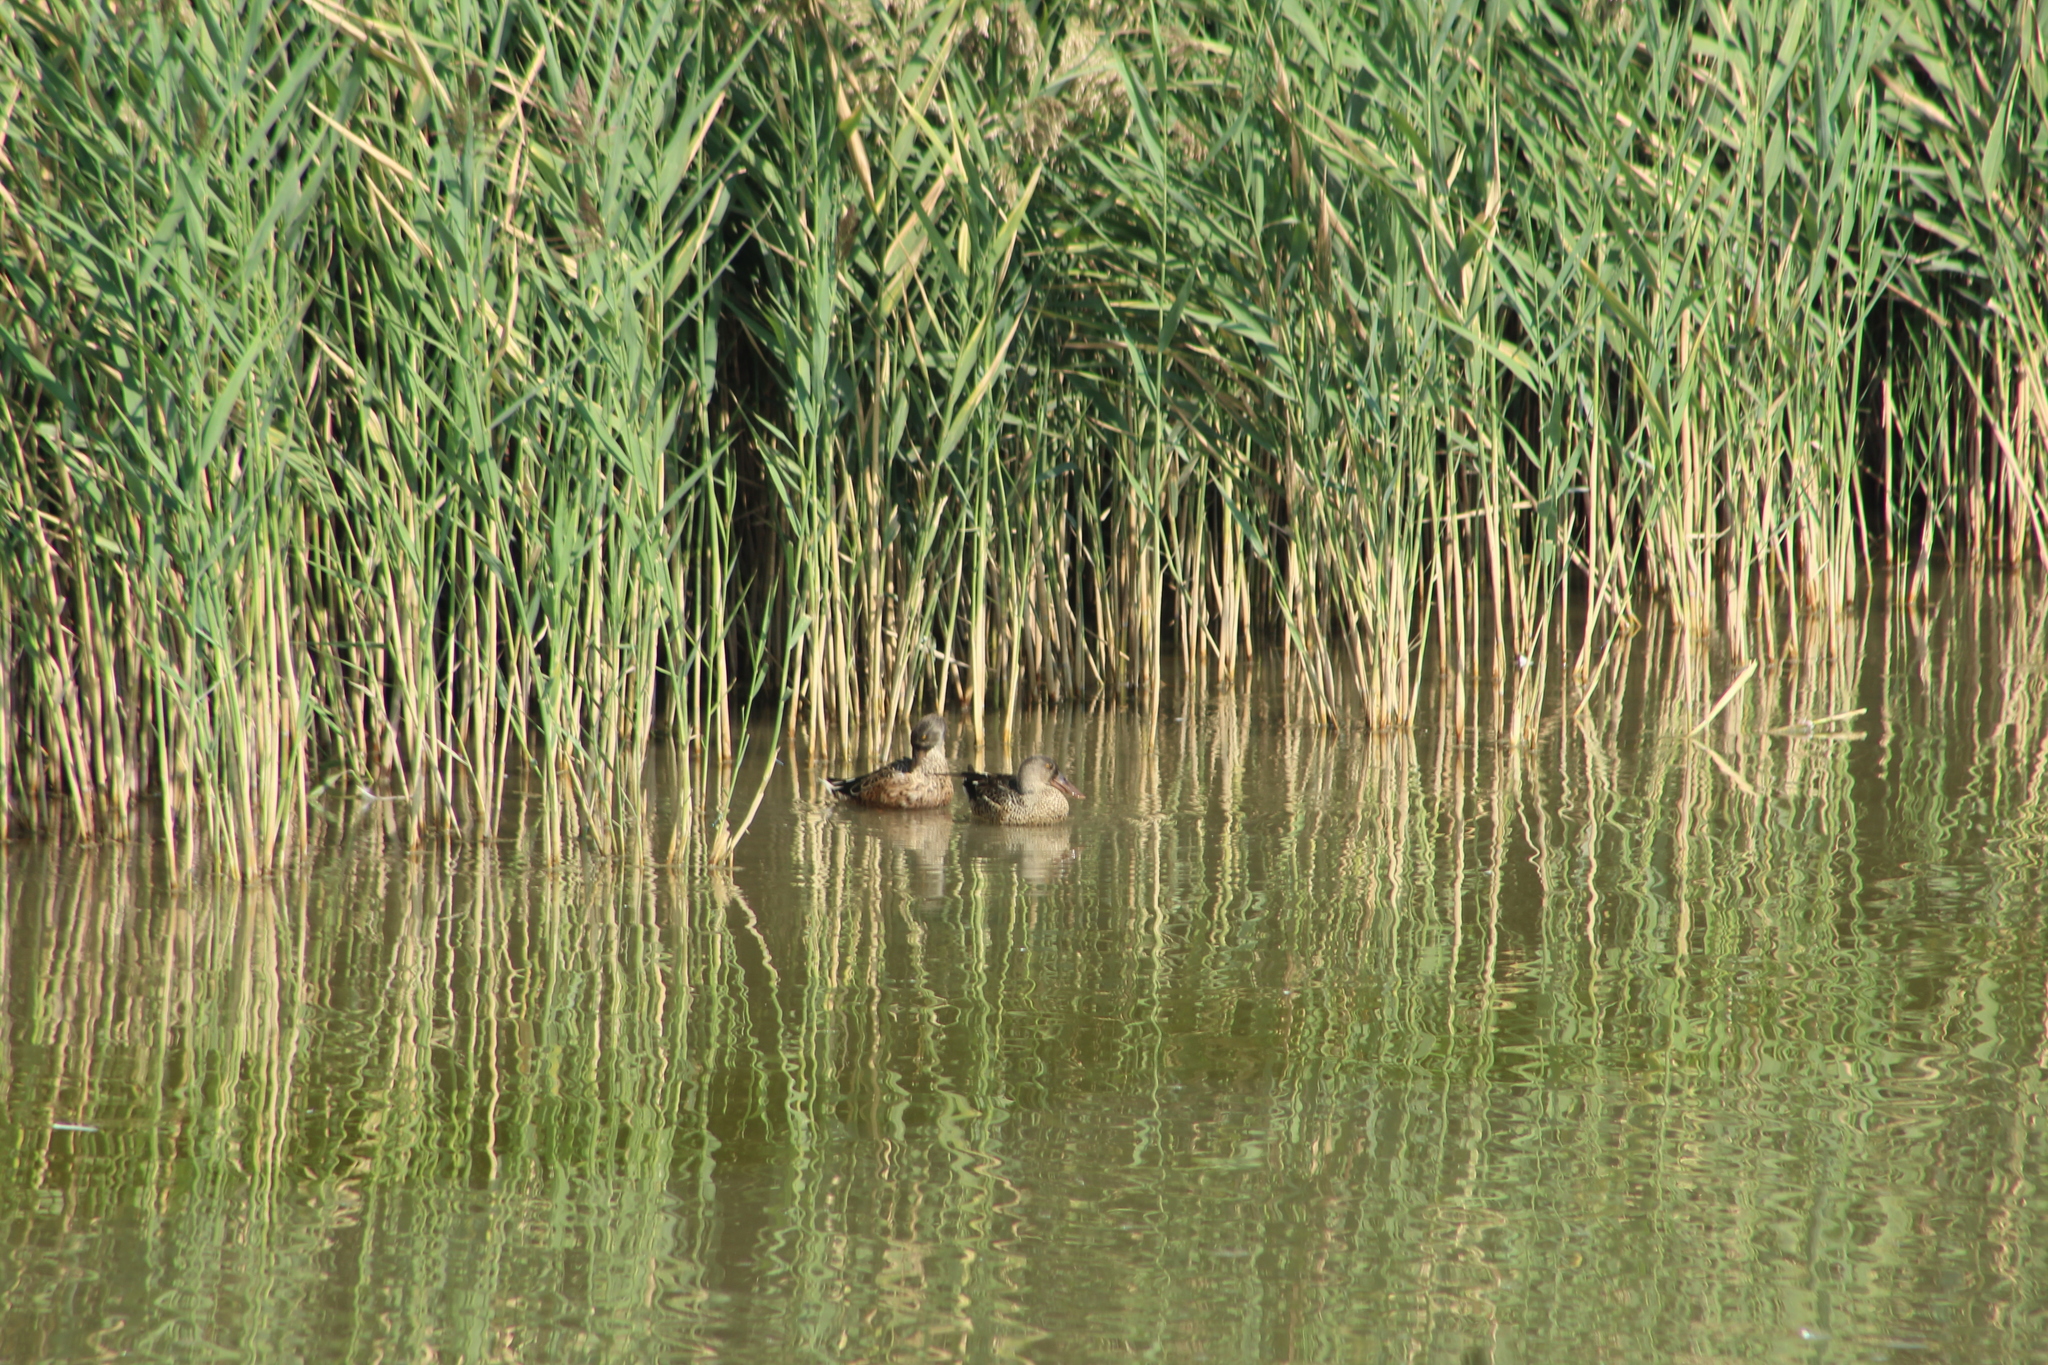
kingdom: Animalia
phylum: Chordata
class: Aves
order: Anseriformes
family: Anatidae
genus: Spatula
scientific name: Spatula clypeata
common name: Northern shoveler
